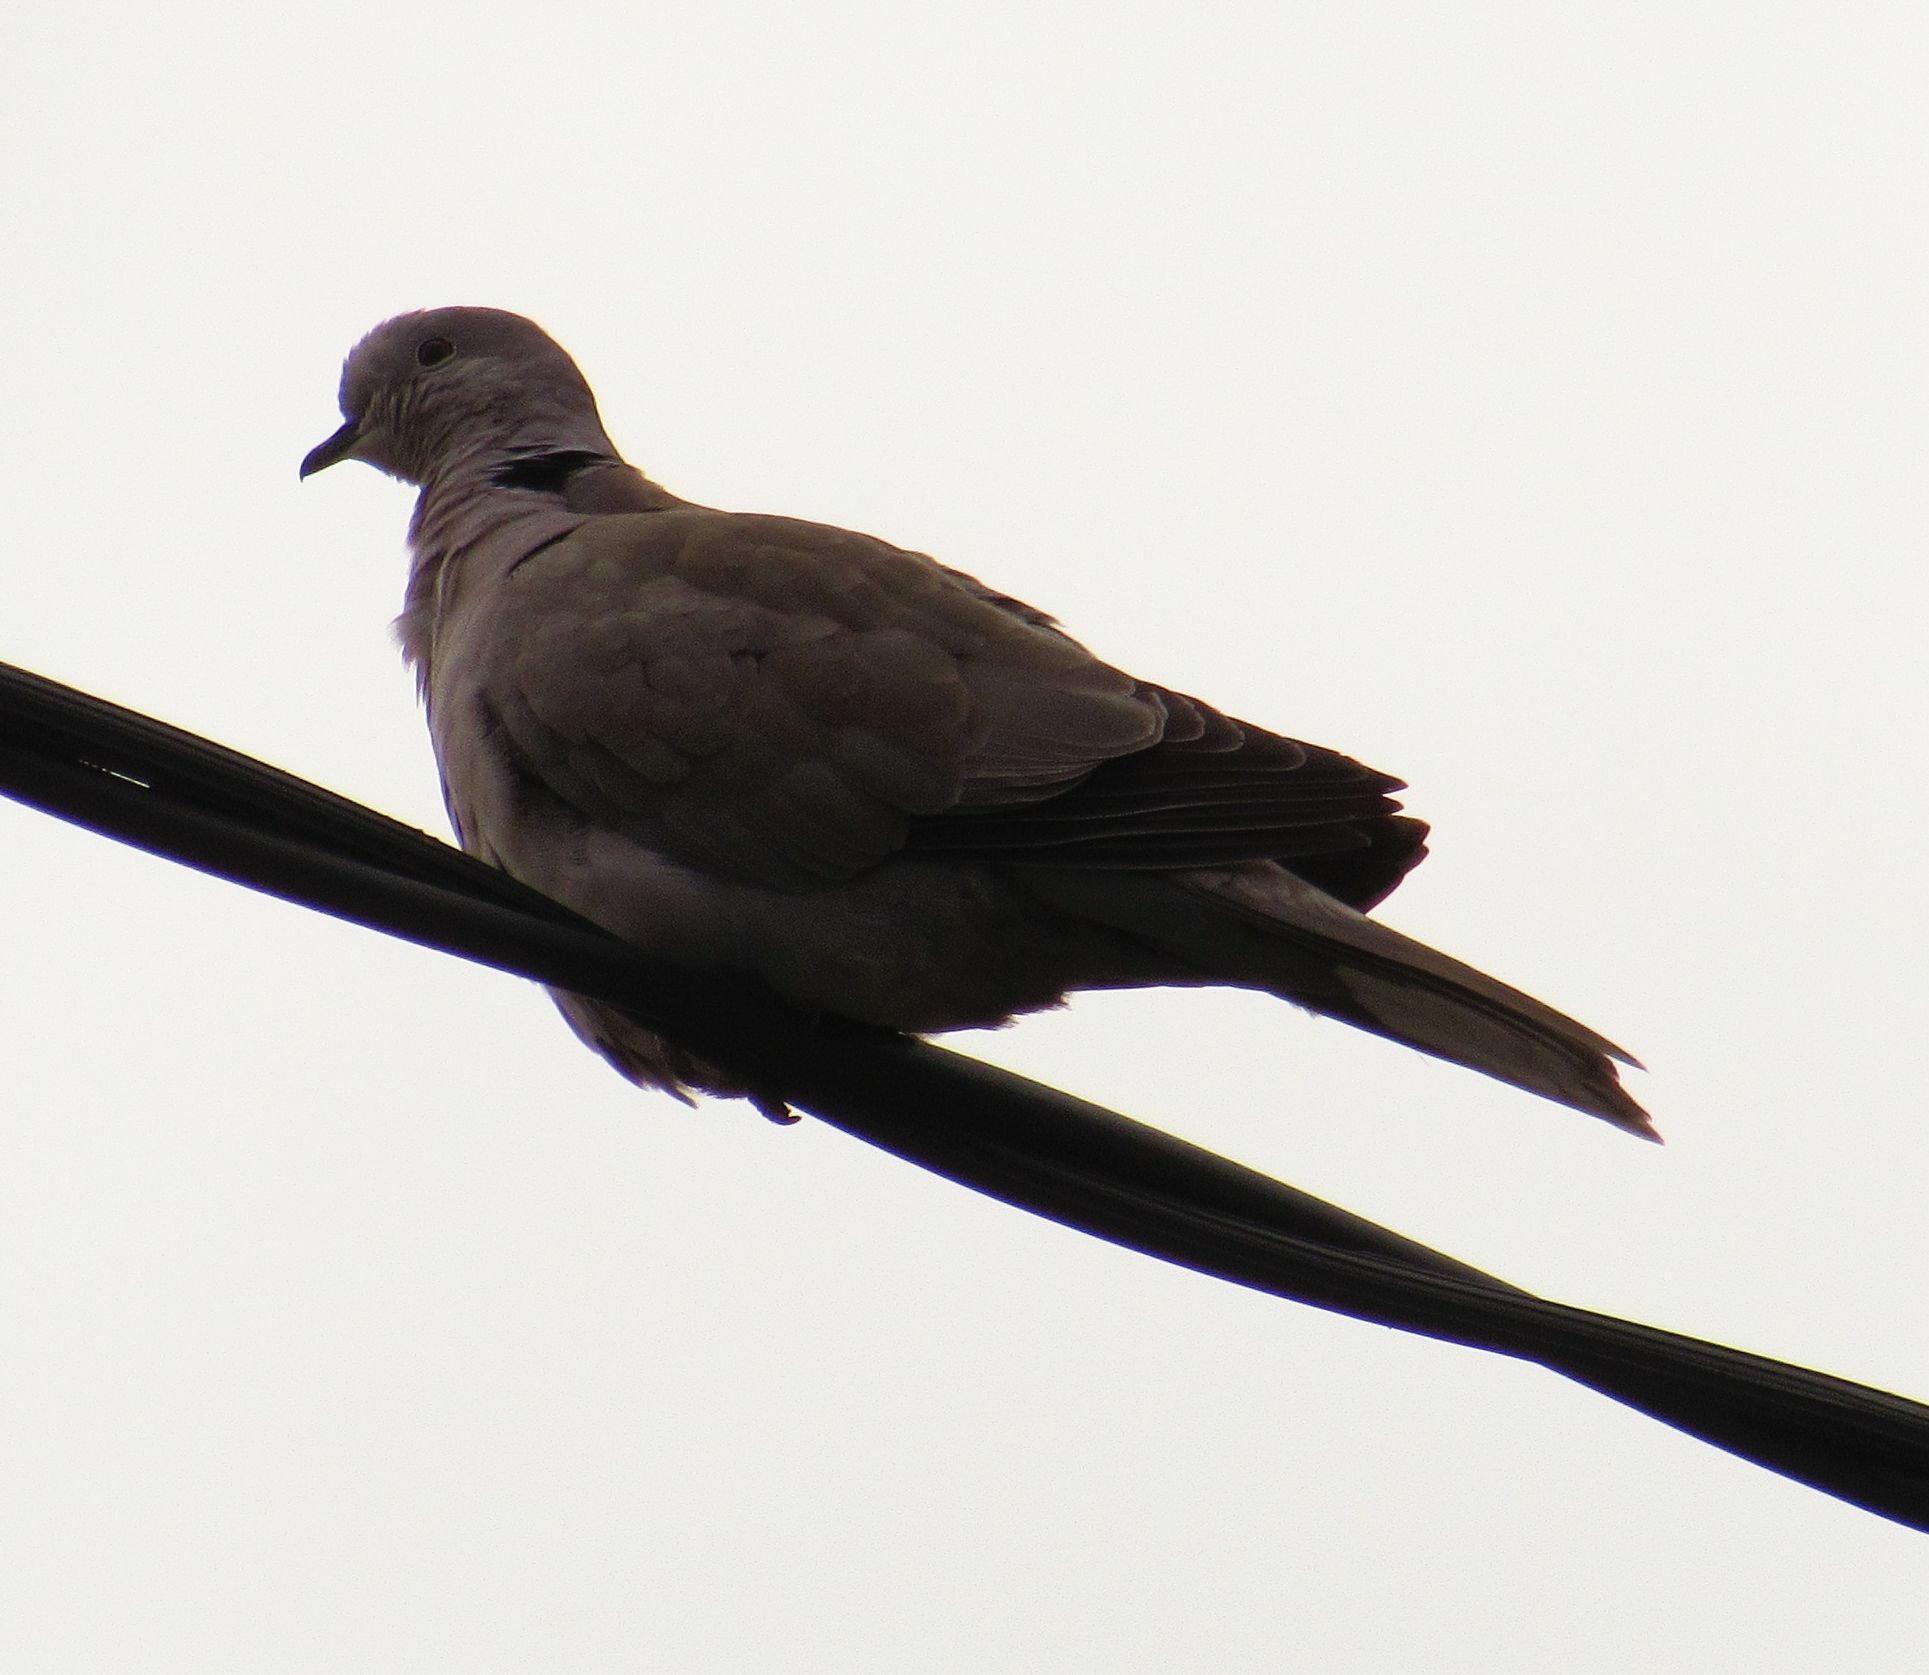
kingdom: Animalia
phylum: Chordata
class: Aves
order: Columbiformes
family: Columbidae
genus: Streptopelia
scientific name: Streptopelia decaocto
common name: Eurasian collared dove
